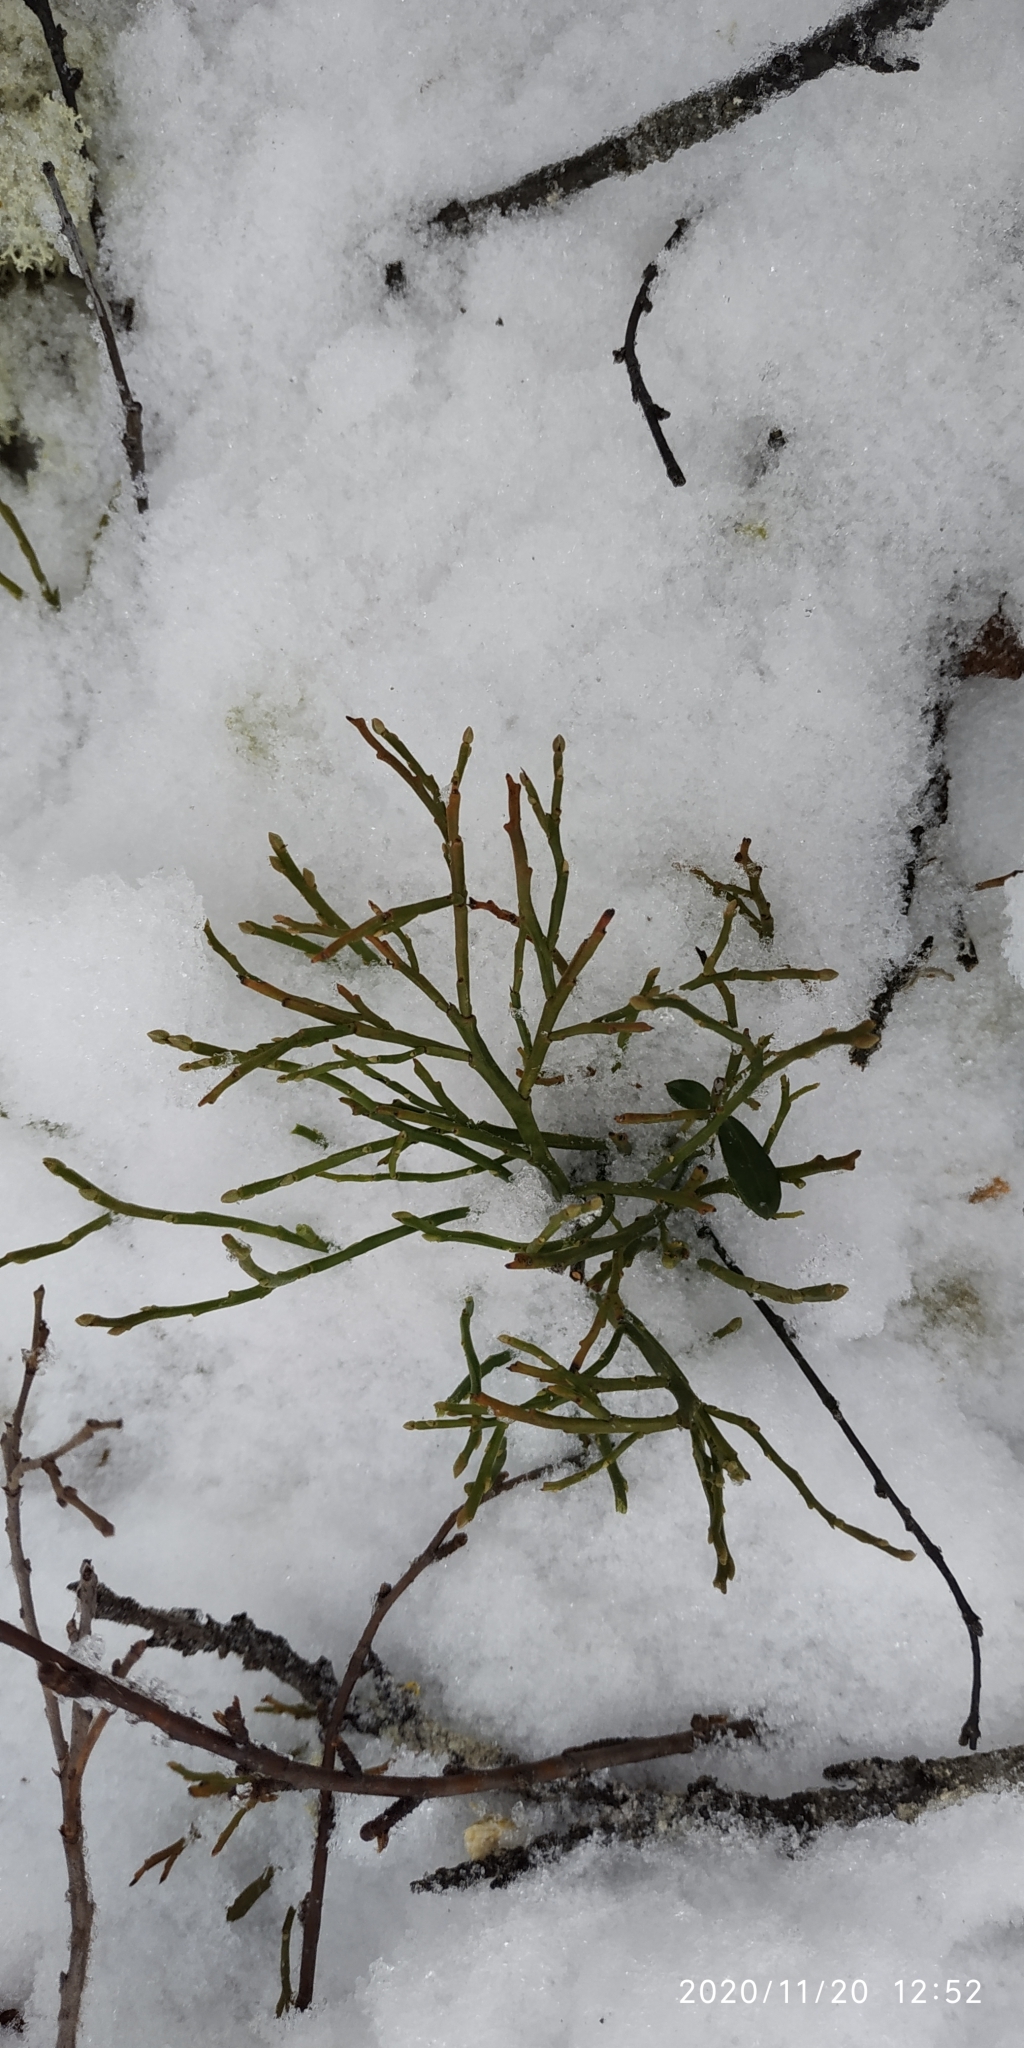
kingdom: Plantae
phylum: Tracheophyta
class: Magnoliopsida
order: Ericales
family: Ericaceae
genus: Vaccinium
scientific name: Vaccinium myrtillus
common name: Bilberry
